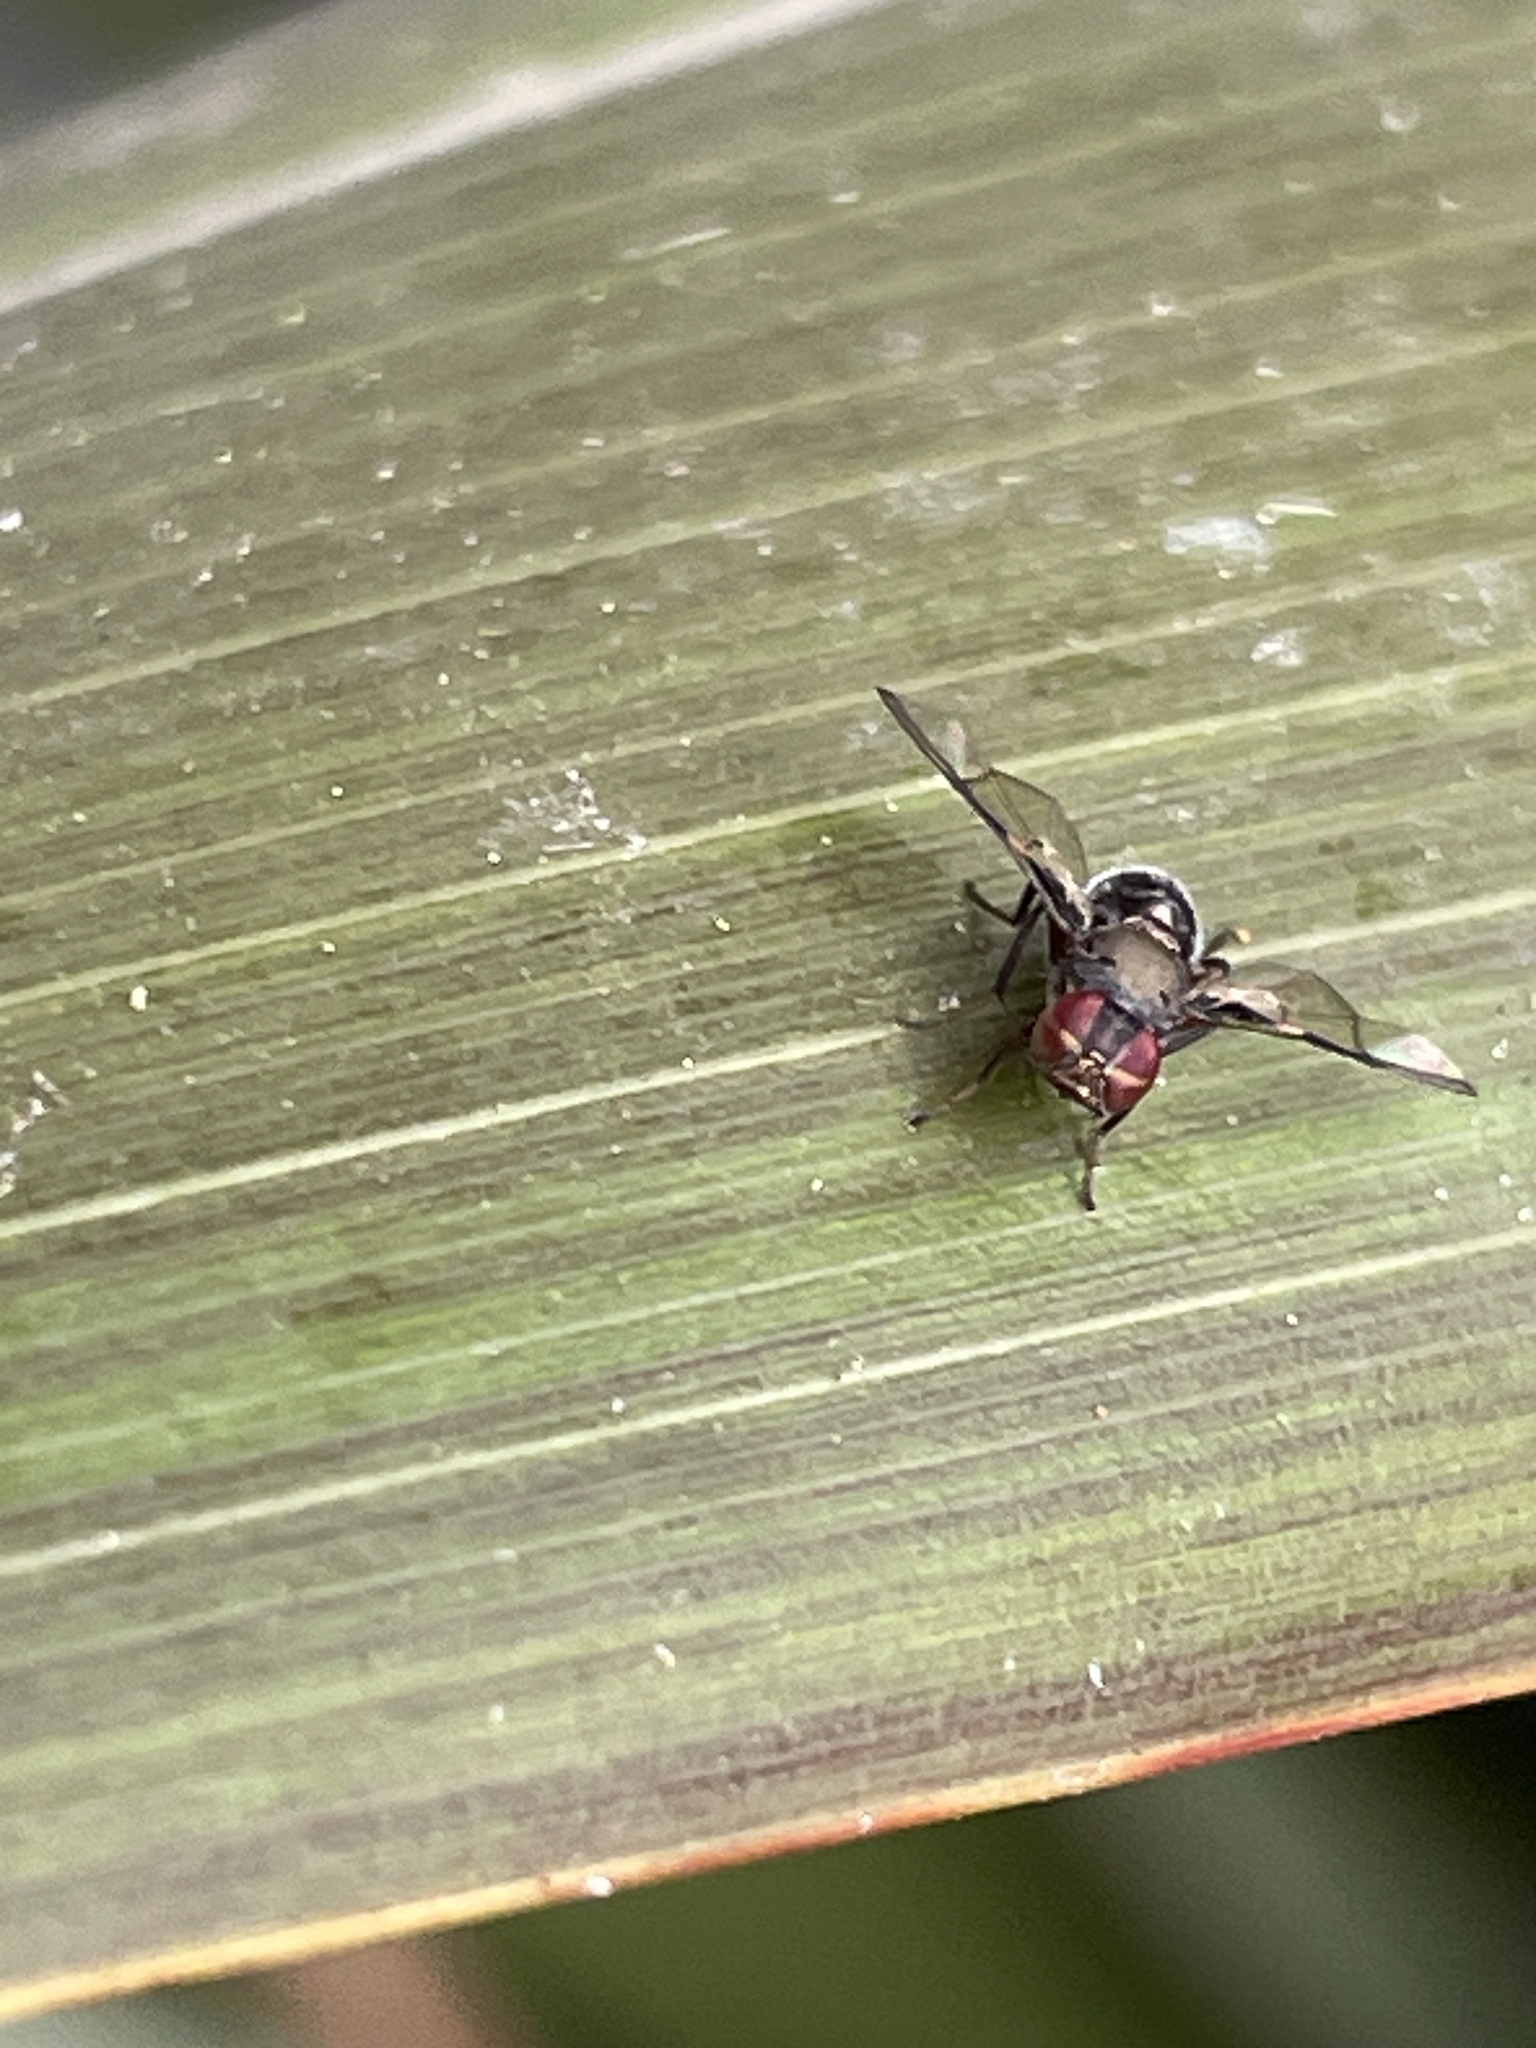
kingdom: Animalia
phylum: Arthropoda
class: Insecta
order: Diptera
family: Platystomatidae
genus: Pogonortalis
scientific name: Pogonortalis doclea
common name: Boatman fly
